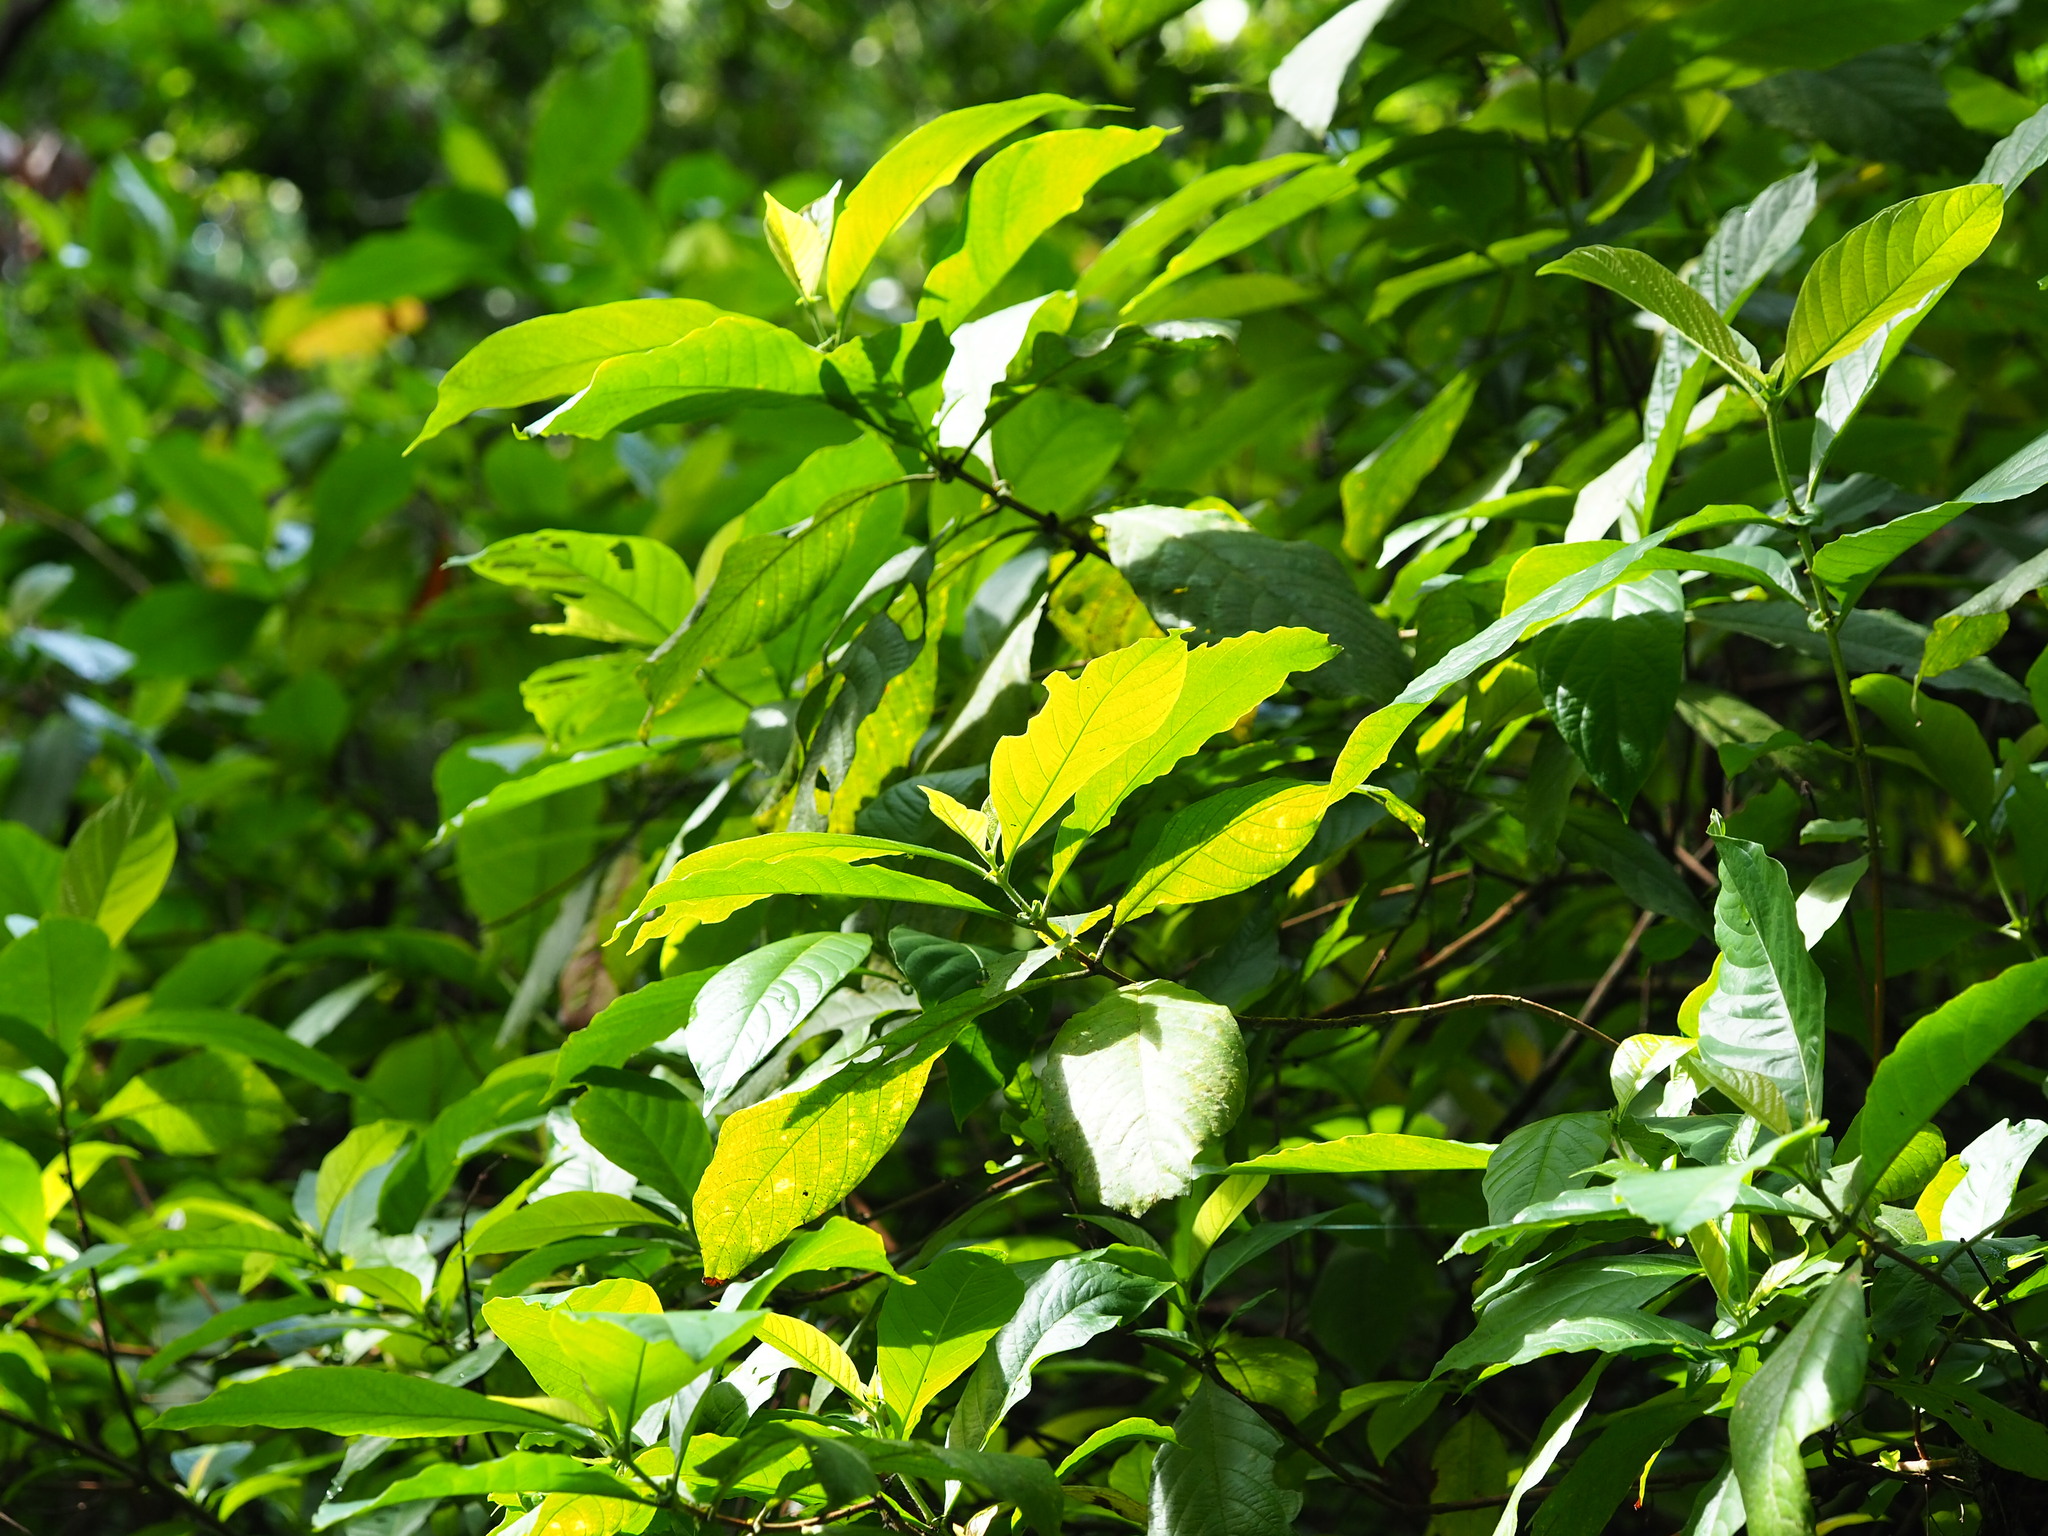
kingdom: Plantae
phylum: Tracheophyta
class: Magnoliopsida
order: Gentianales
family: Rubiaceae
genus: Wendlandia
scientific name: Wendlandia uvariifolia
